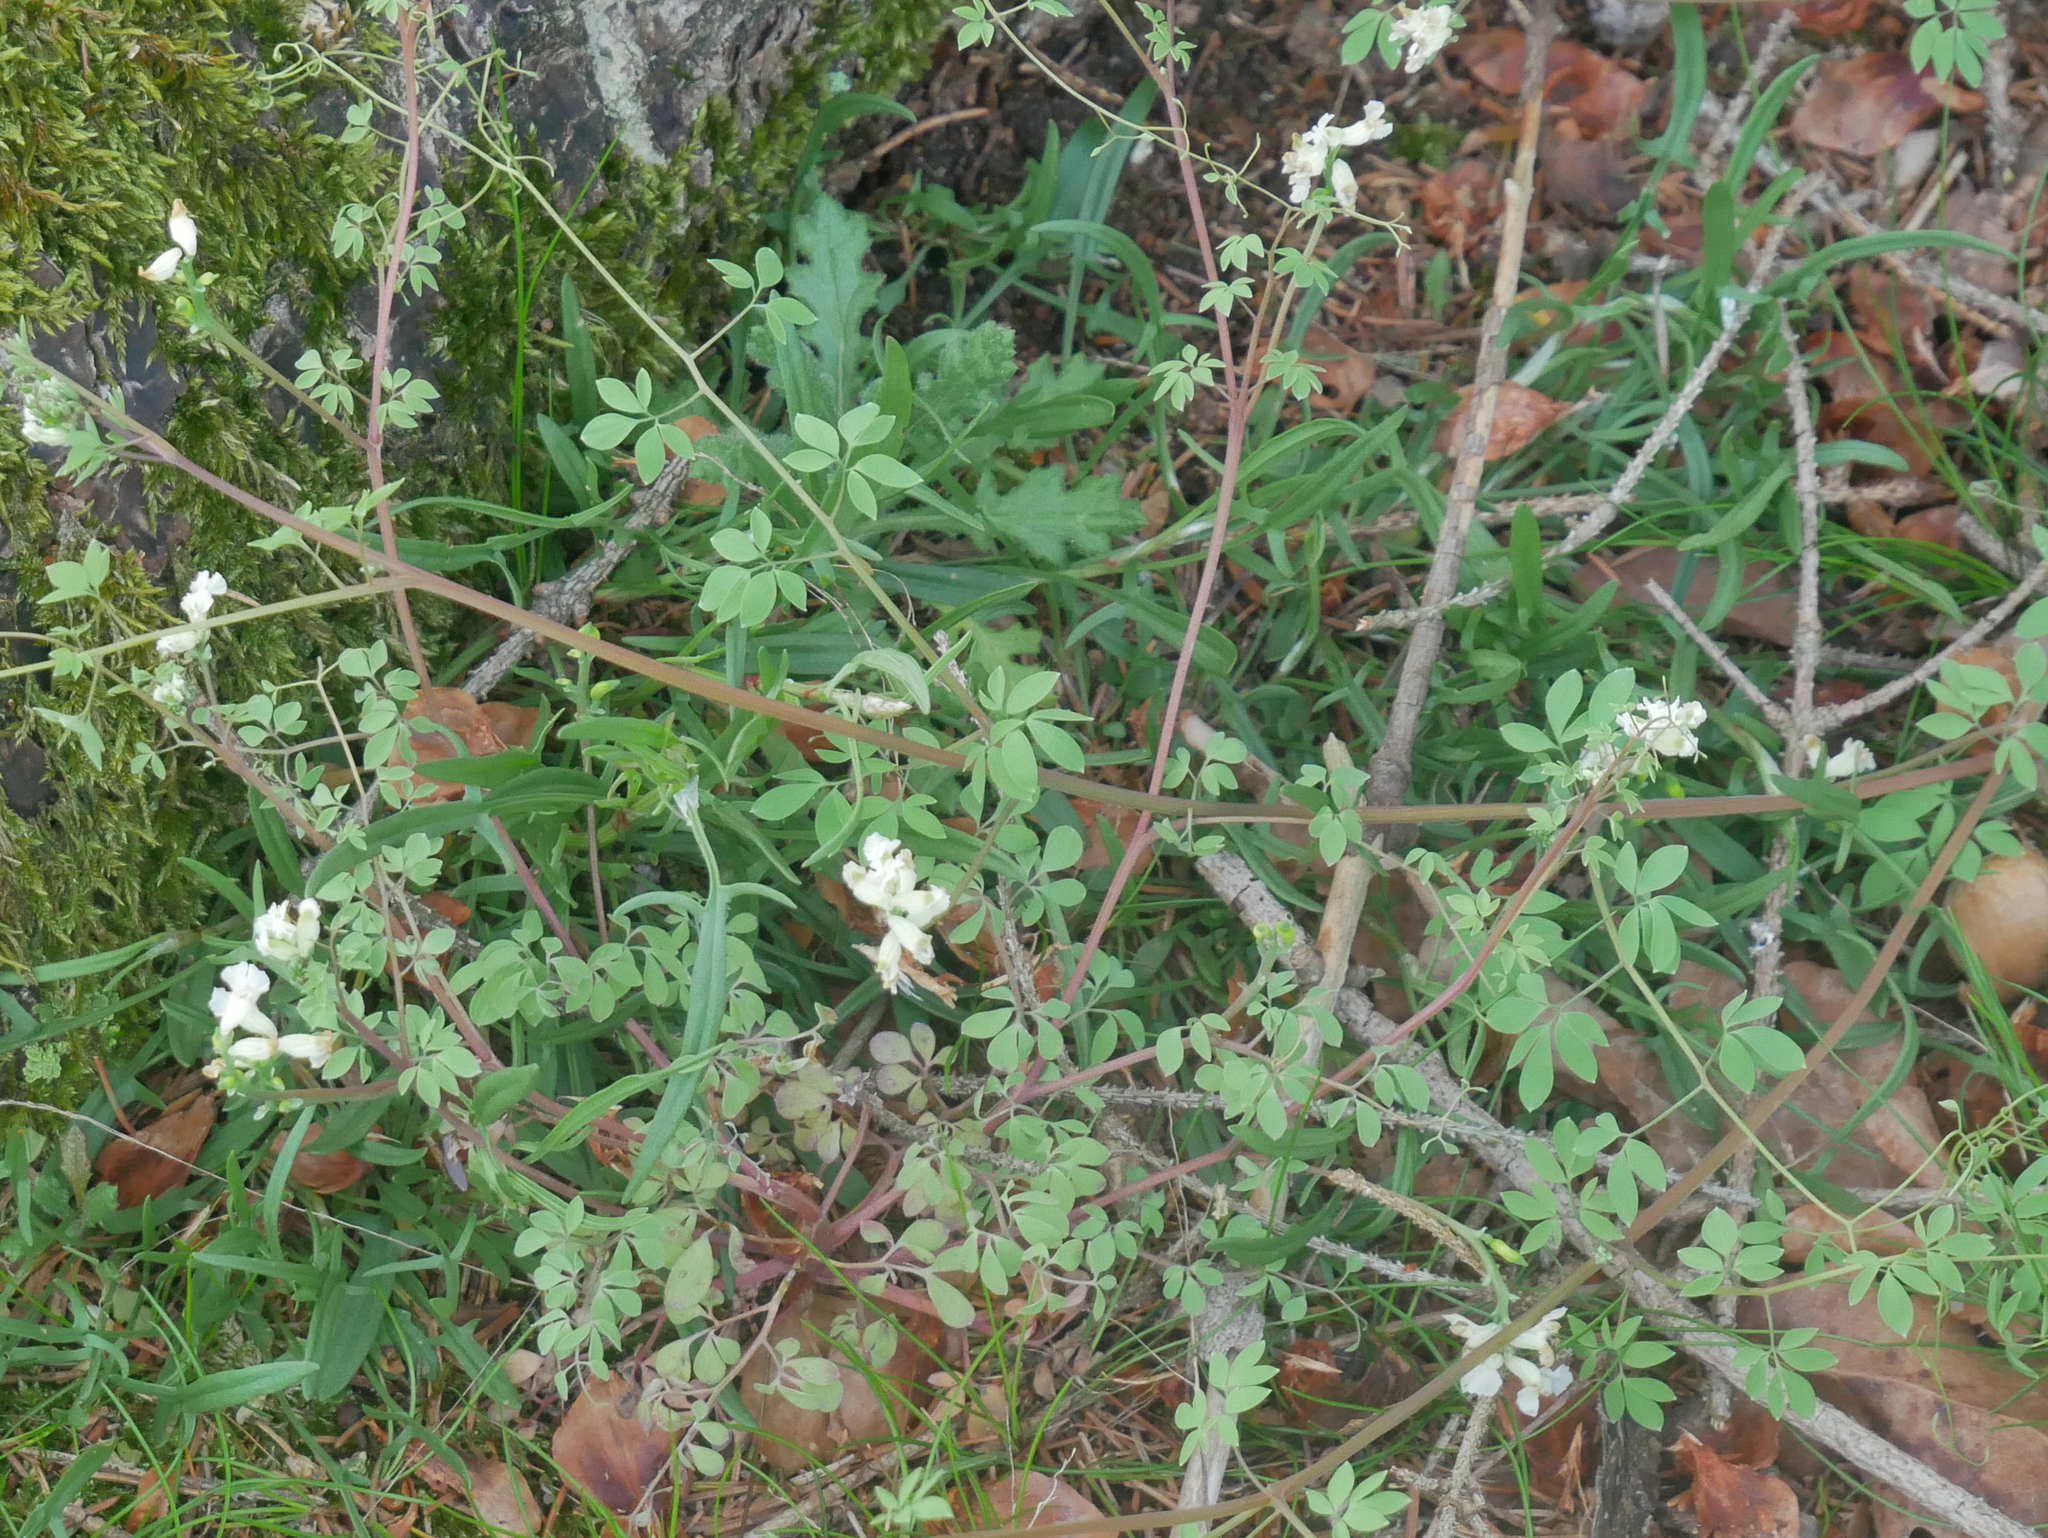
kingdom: Plantae
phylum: Tracheophyta
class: Magnoliopsida
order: Ranunculales
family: Papaveraceae
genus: Ceratocapnos
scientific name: Ceratocapnos claviculata
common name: Climbing corydalis
